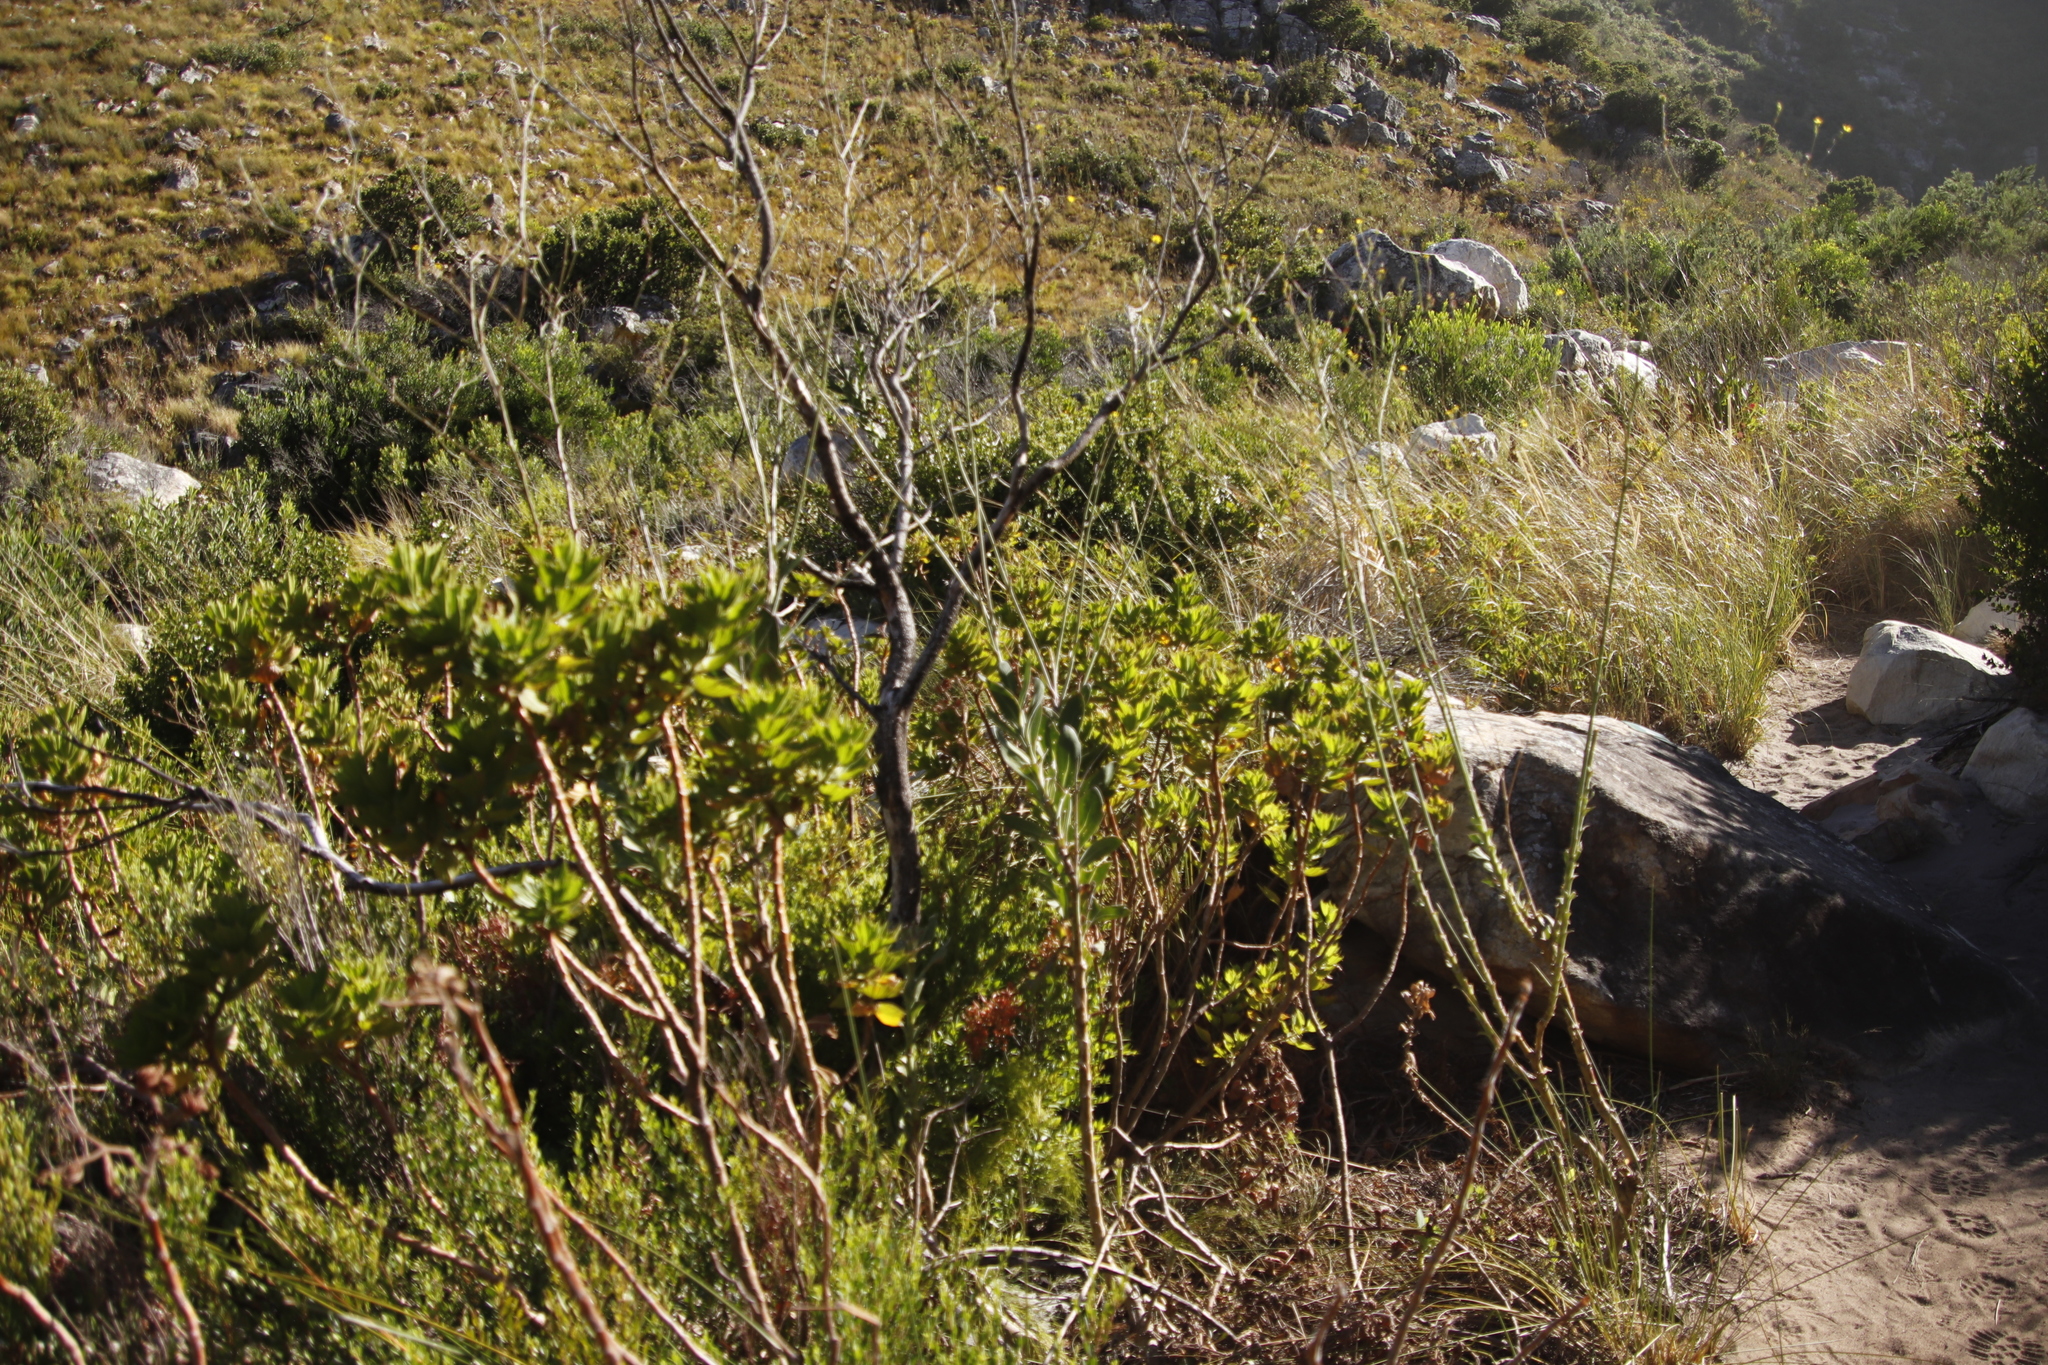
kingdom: Plantae
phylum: Tracheophyta
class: Magnoliopsida
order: Asterales
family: Asteraceae
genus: Othonna
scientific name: Othonna quinquedentata
